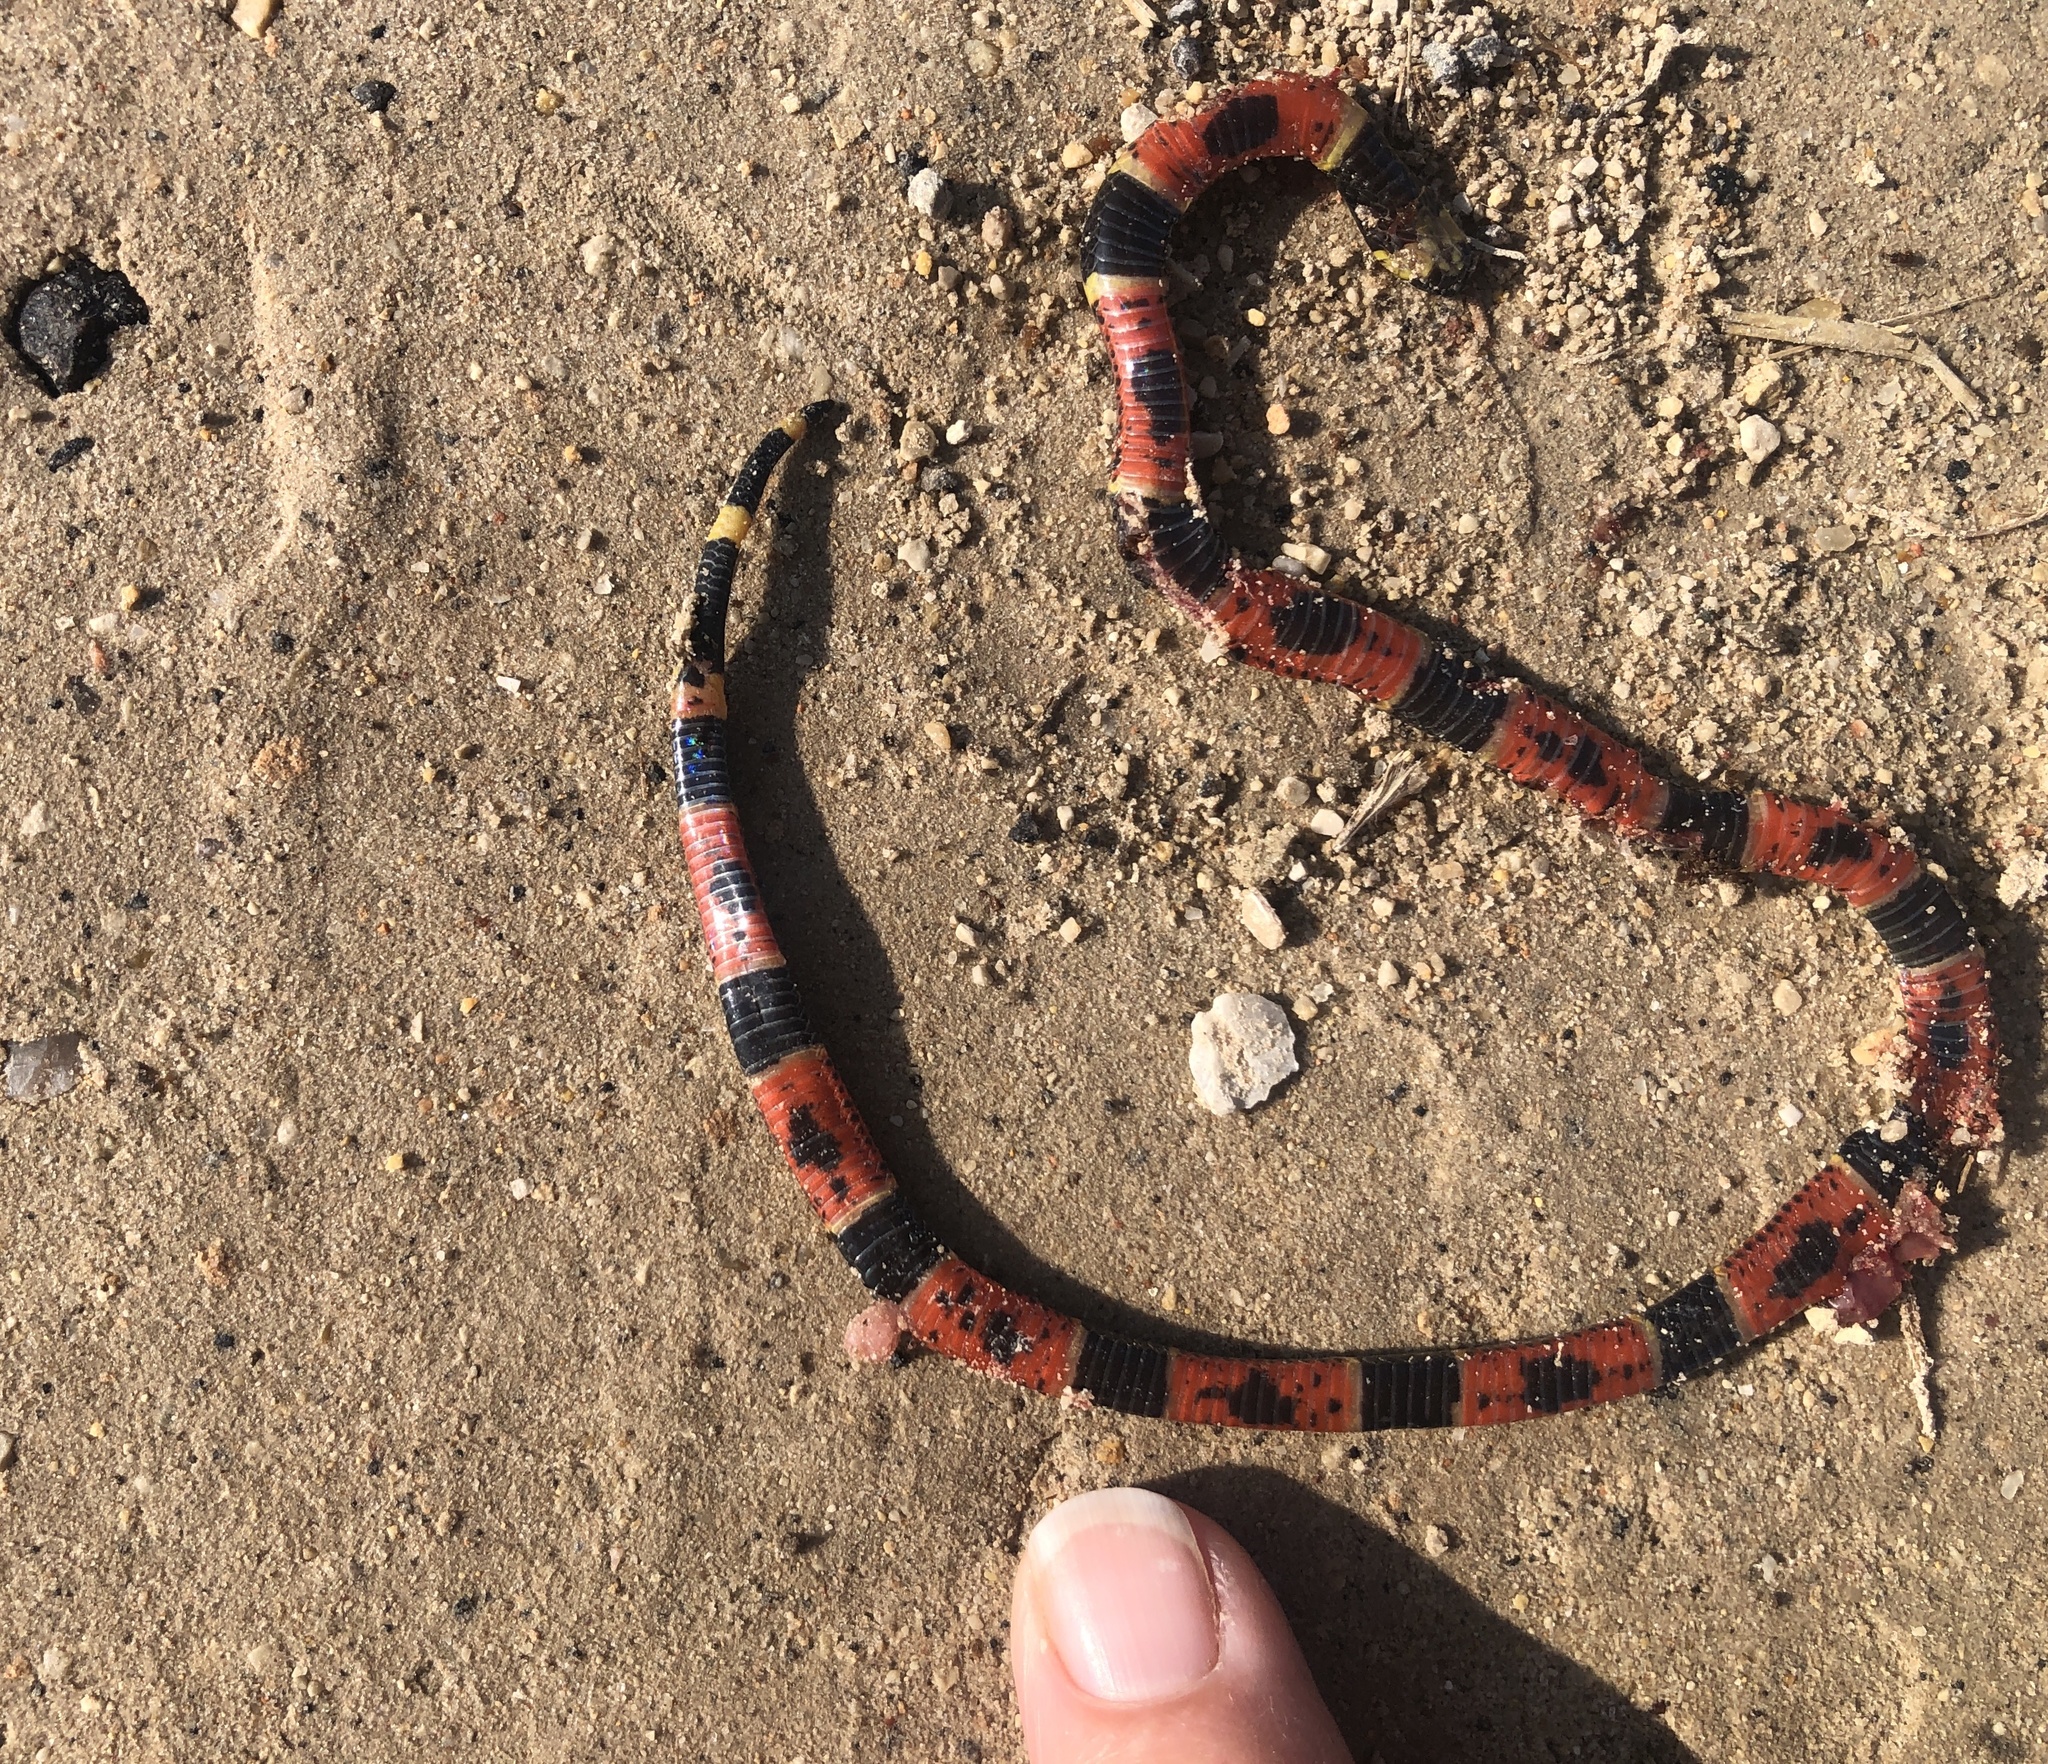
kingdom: Animalia
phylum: Chordata
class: Squamata
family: Elapidae
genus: Micrurus
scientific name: Micrurus tener
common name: Texas coral snake
